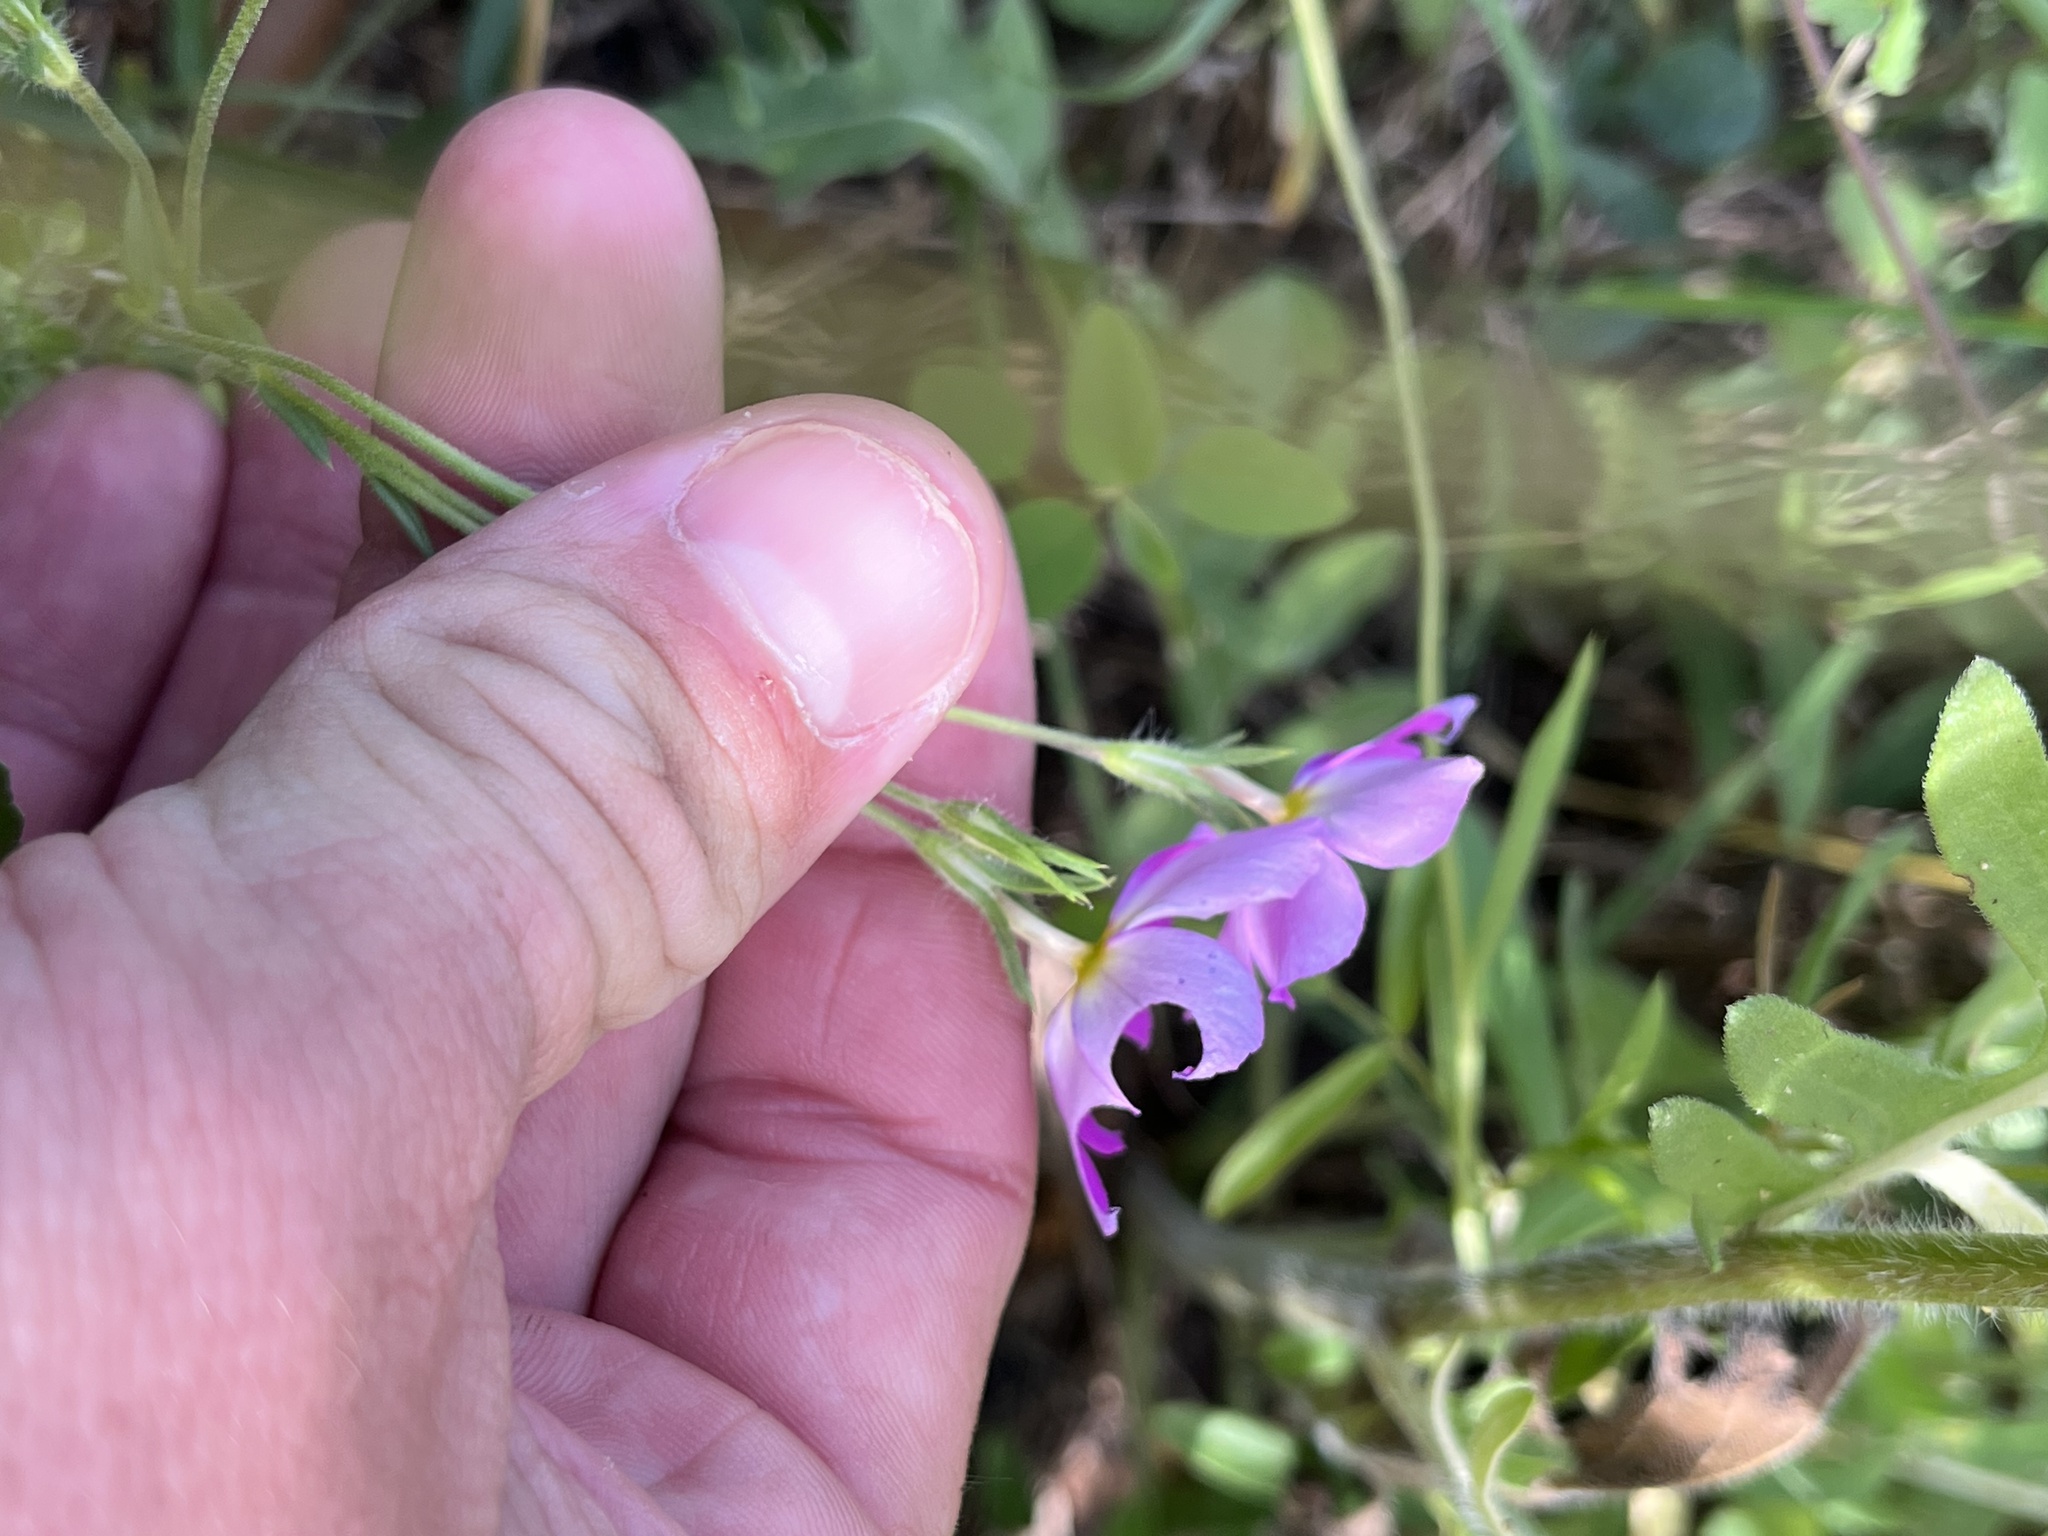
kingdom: Plantae
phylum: Tracheophyta
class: Magnoliopsida
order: Ericales
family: Polemoniaceae
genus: Phlox
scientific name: Phlox roemeriana
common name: Roemer's phlox
